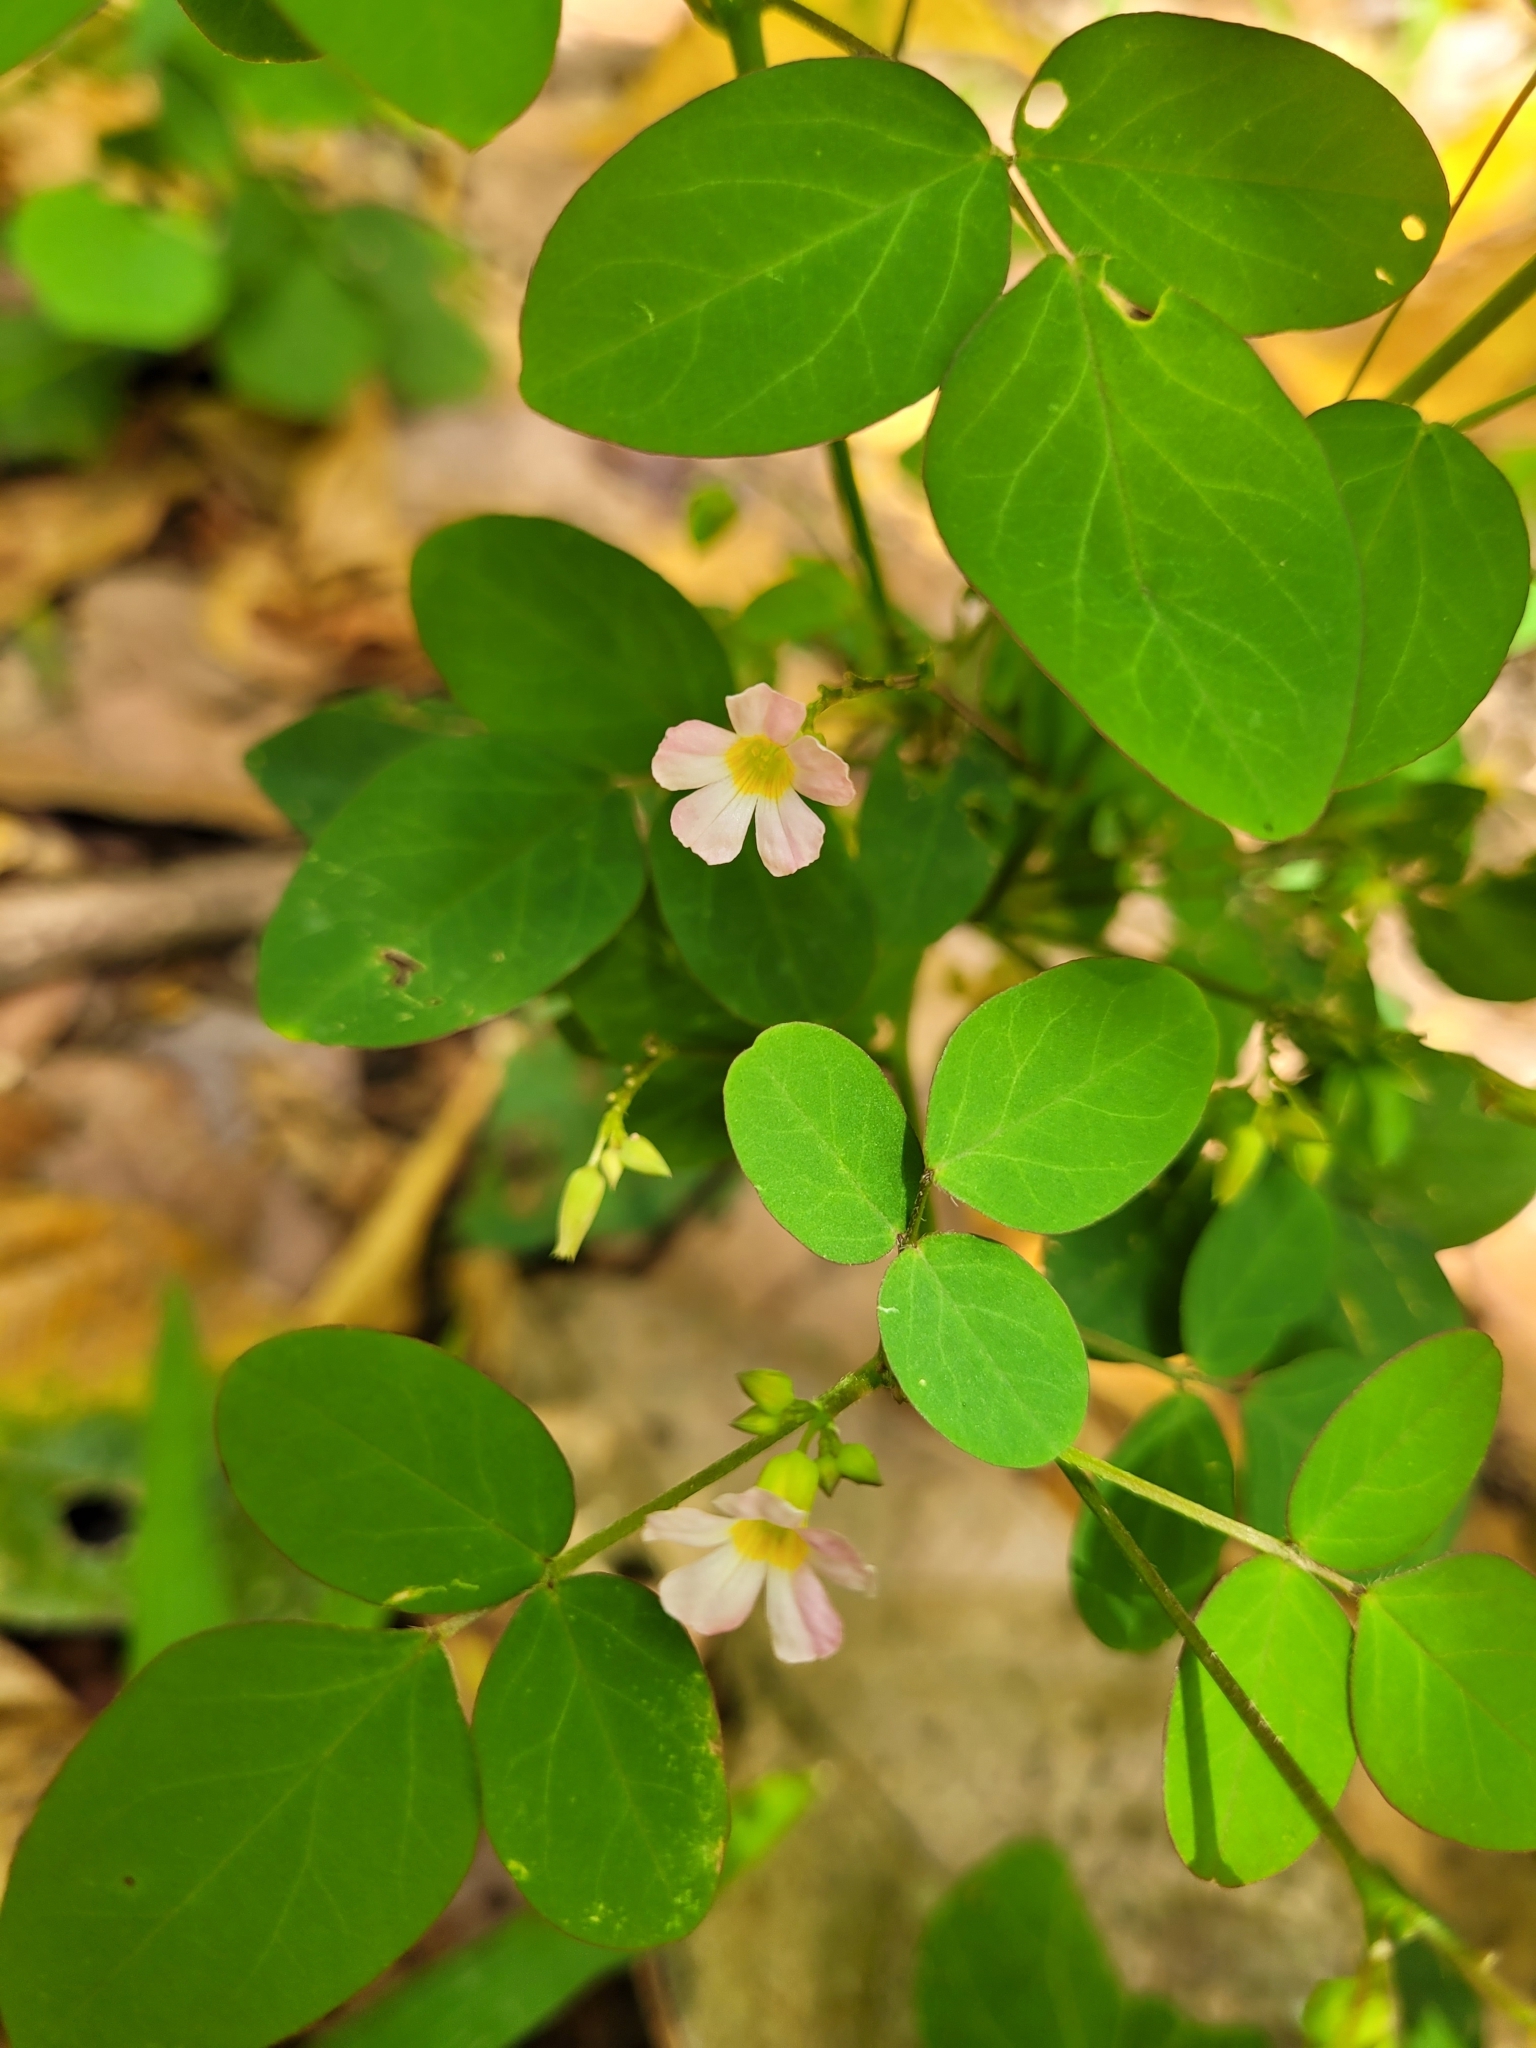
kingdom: Plantae
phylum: Tracheophyta
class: Magnoliopsida
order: Oxalidales
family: Oxalidaceae
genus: Oxalis
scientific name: Oxalis barrelieri
